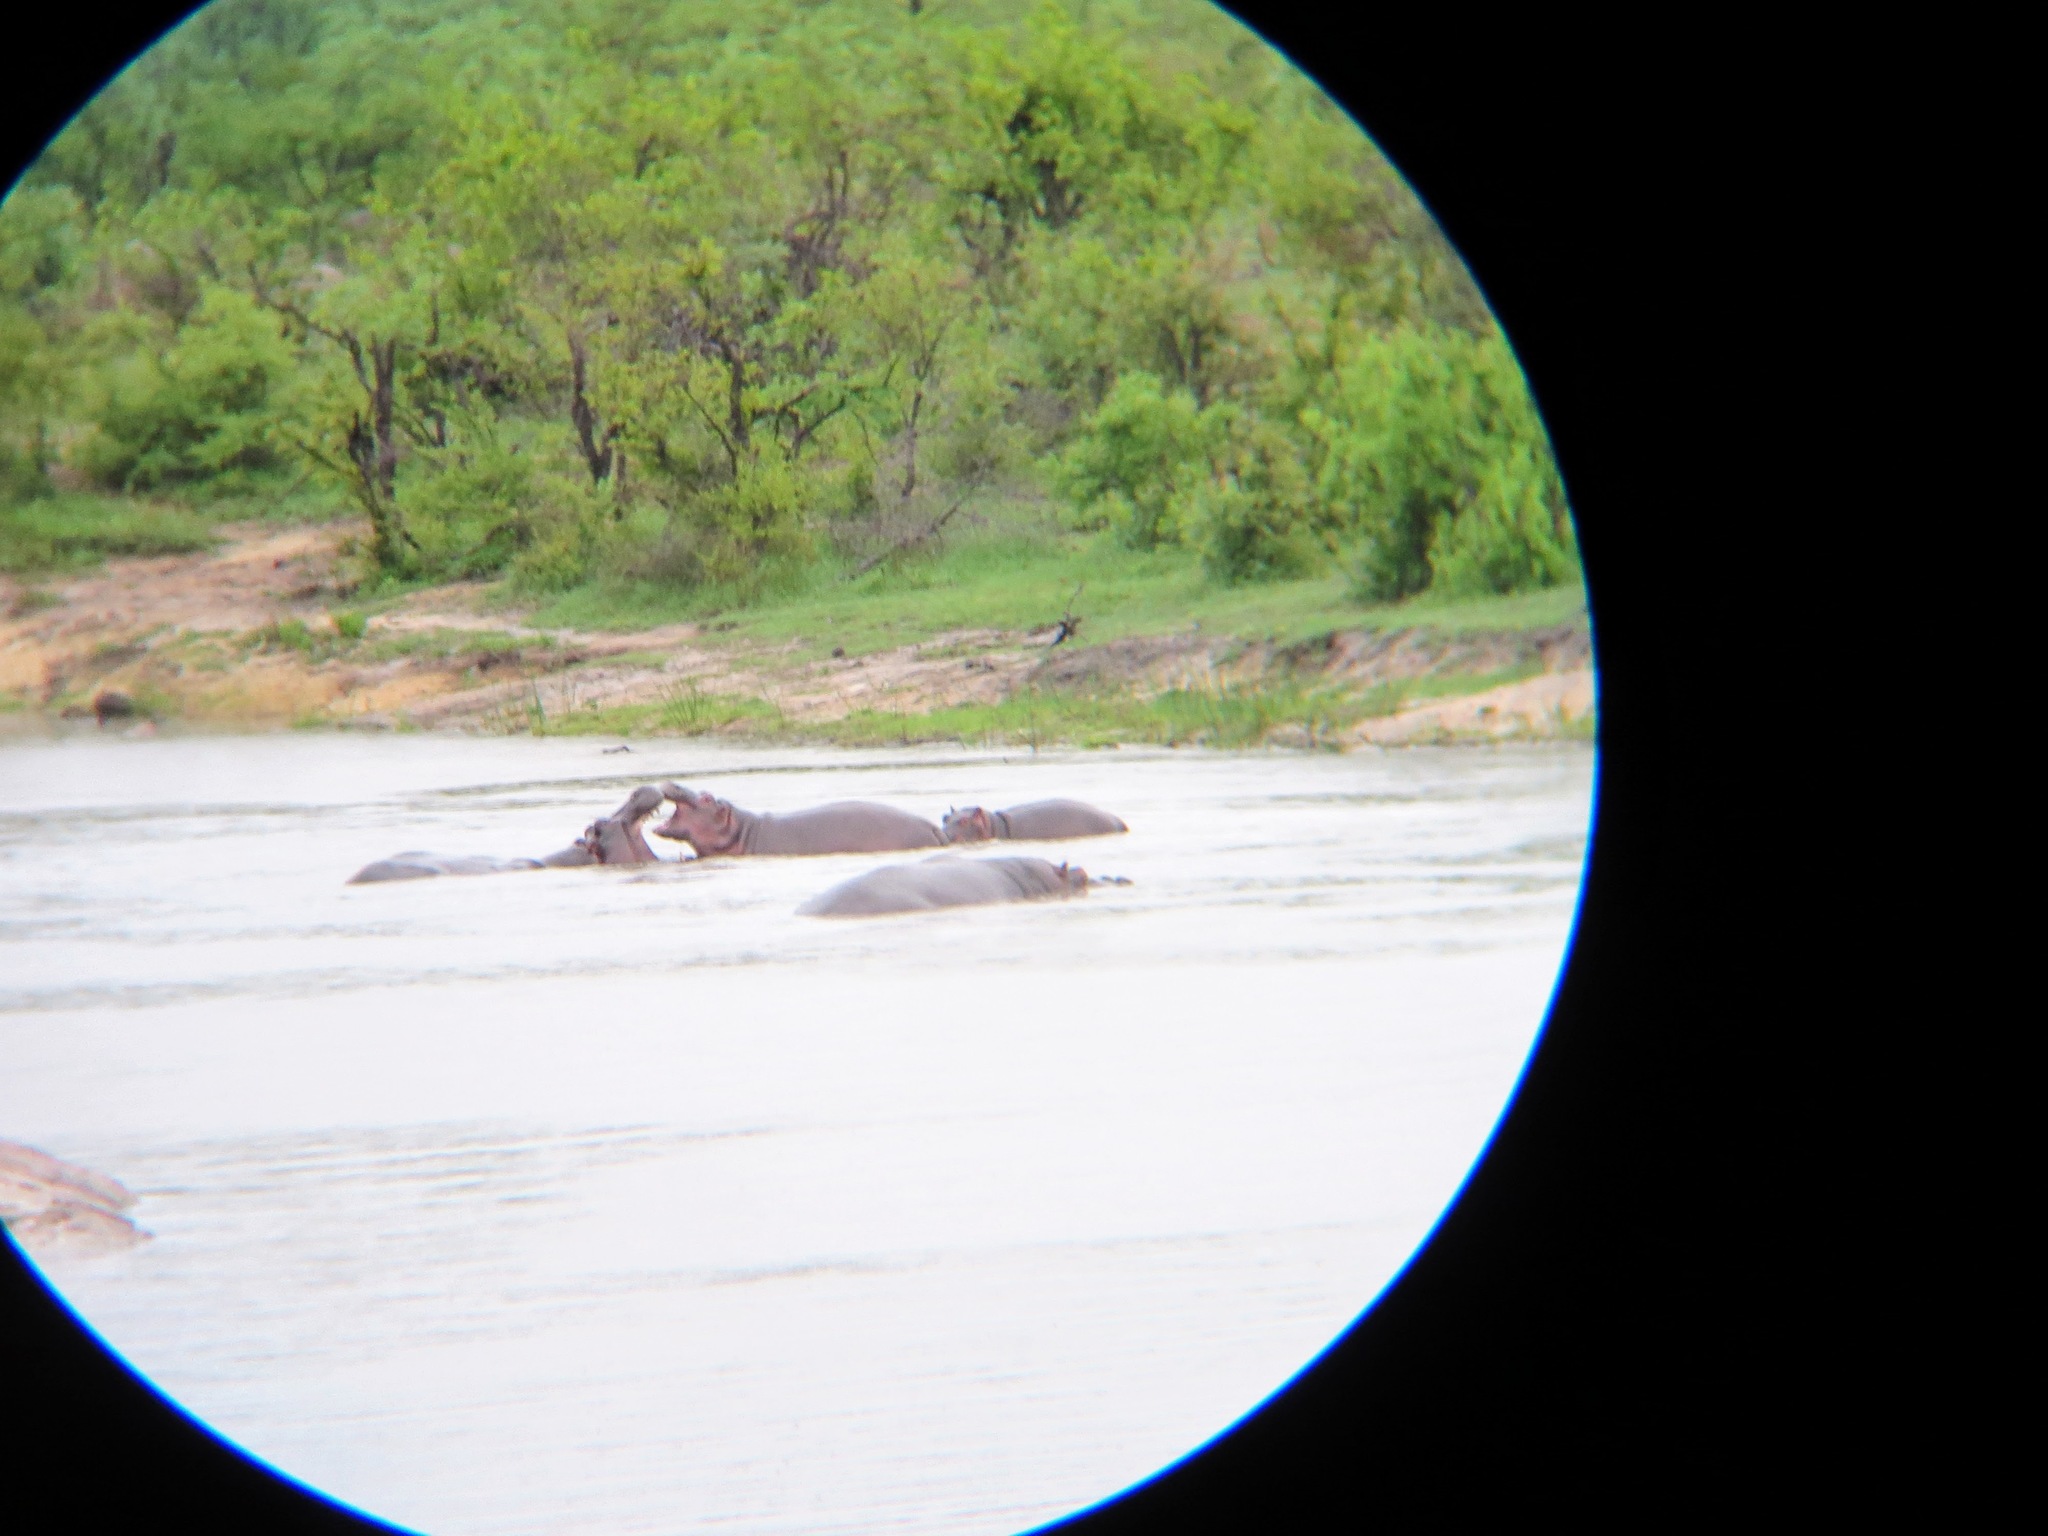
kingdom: Animalia
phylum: Chordata
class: Mammalia
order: Artiodactyla
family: Hippopotamidae
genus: Hippopotamus
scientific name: Hippopotamus amphibius
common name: Common hippopotamus
